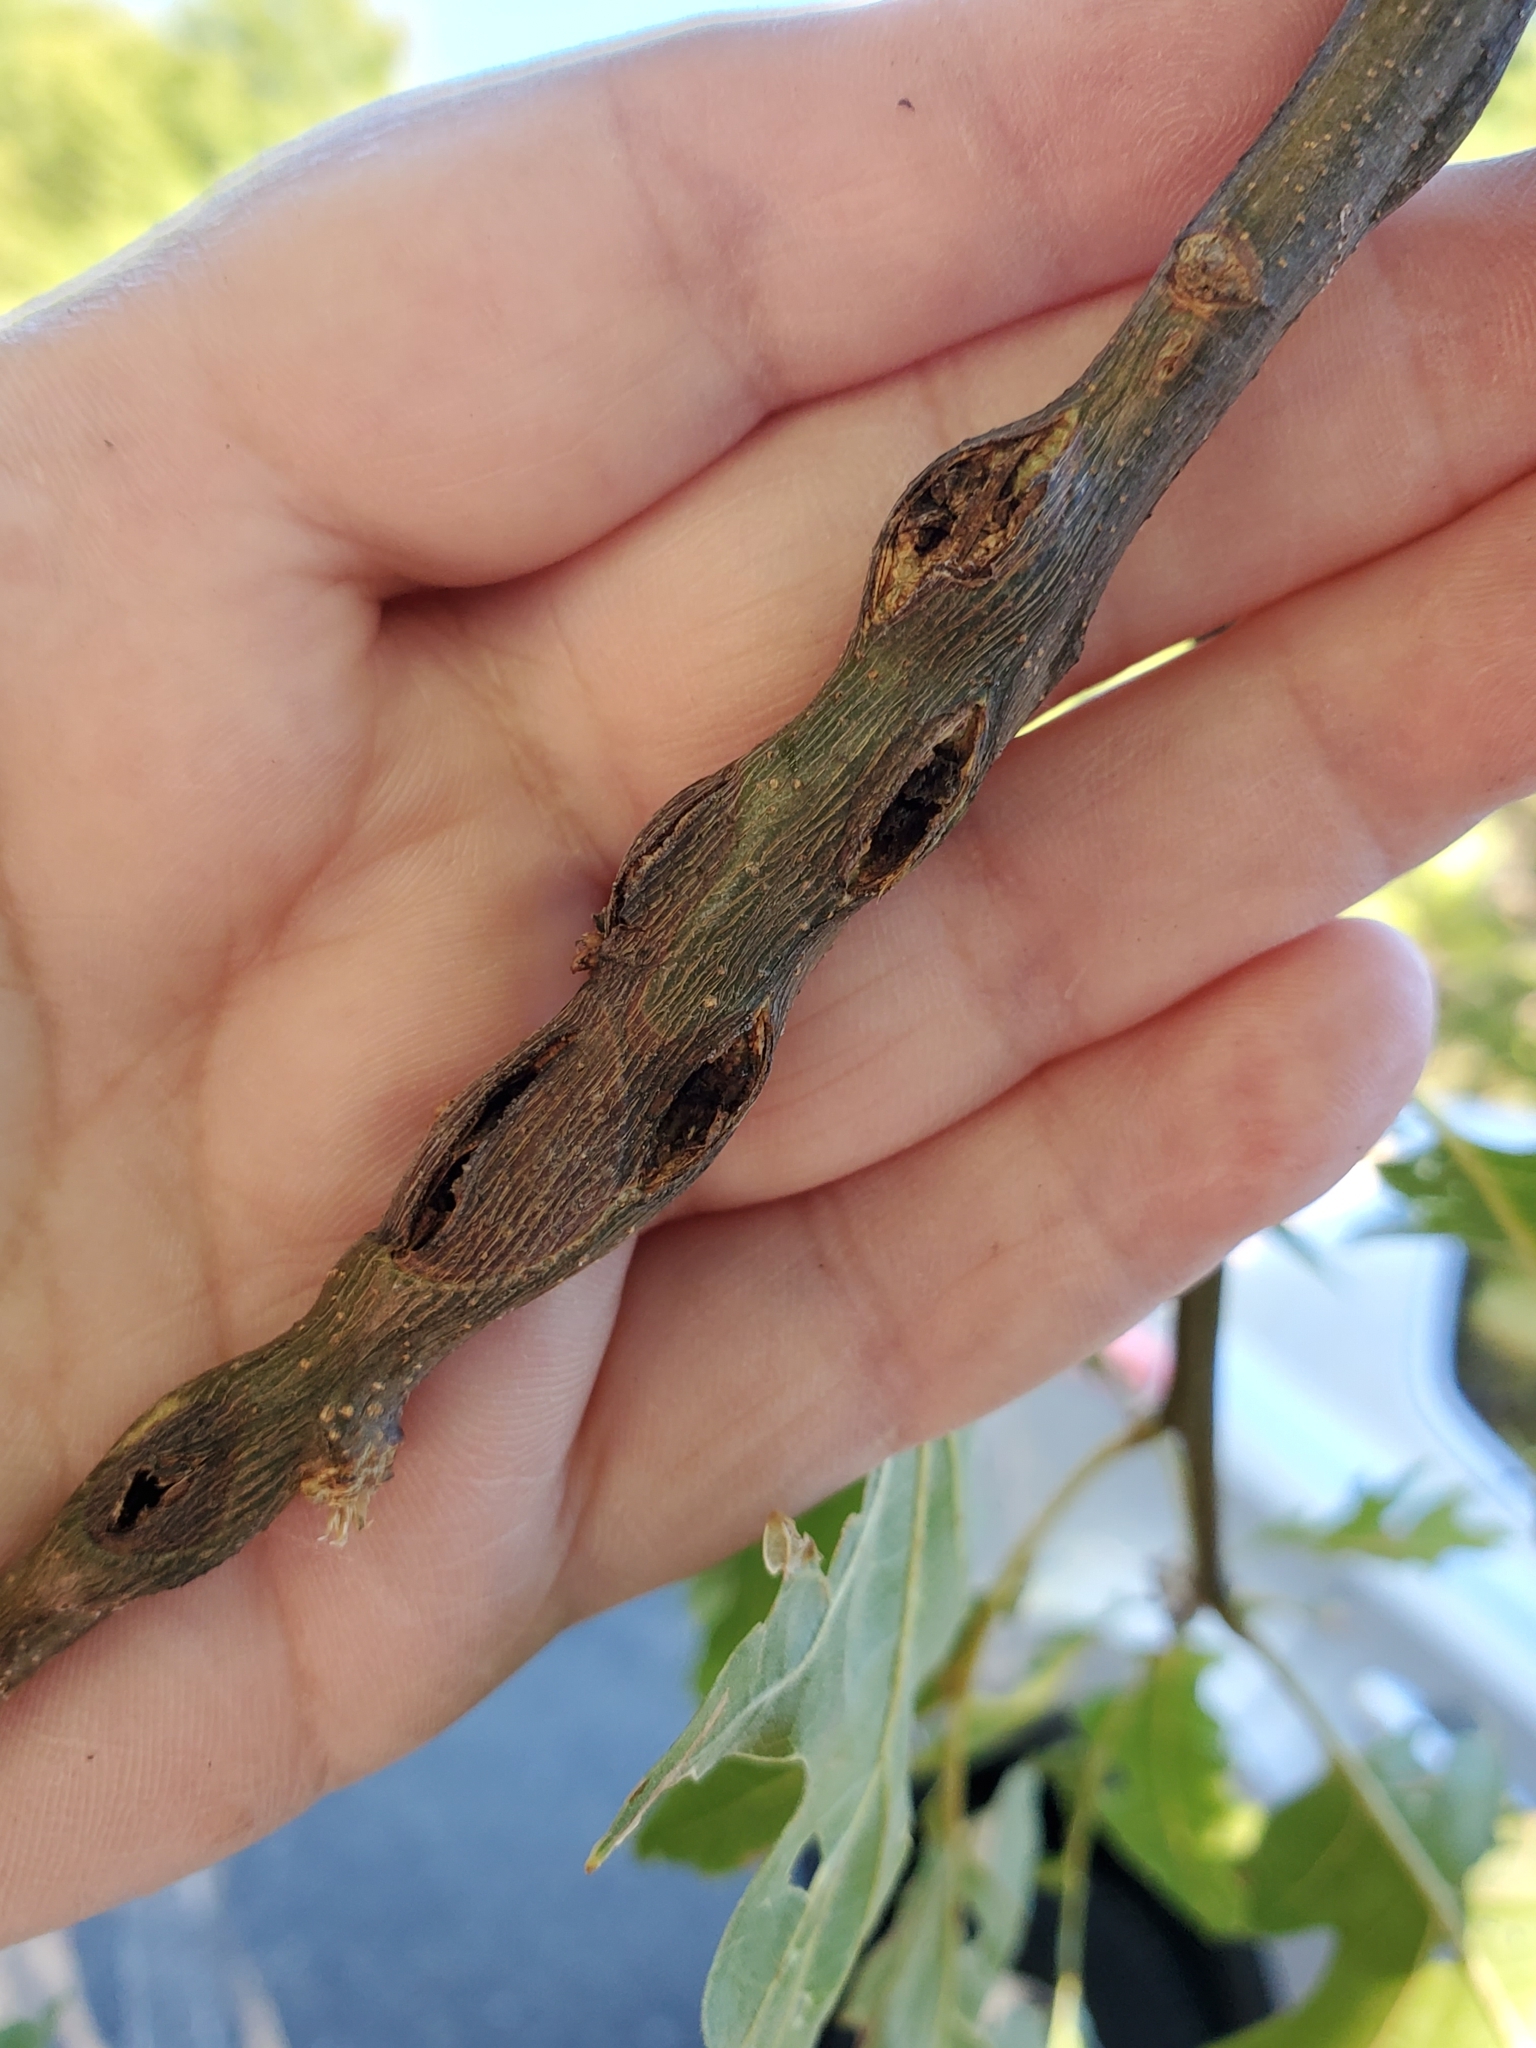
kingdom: Animalia
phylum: Arthropoda
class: Insecta
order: Hymenoptera
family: Cynipidae
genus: Callirhytis
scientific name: Callirhytis
